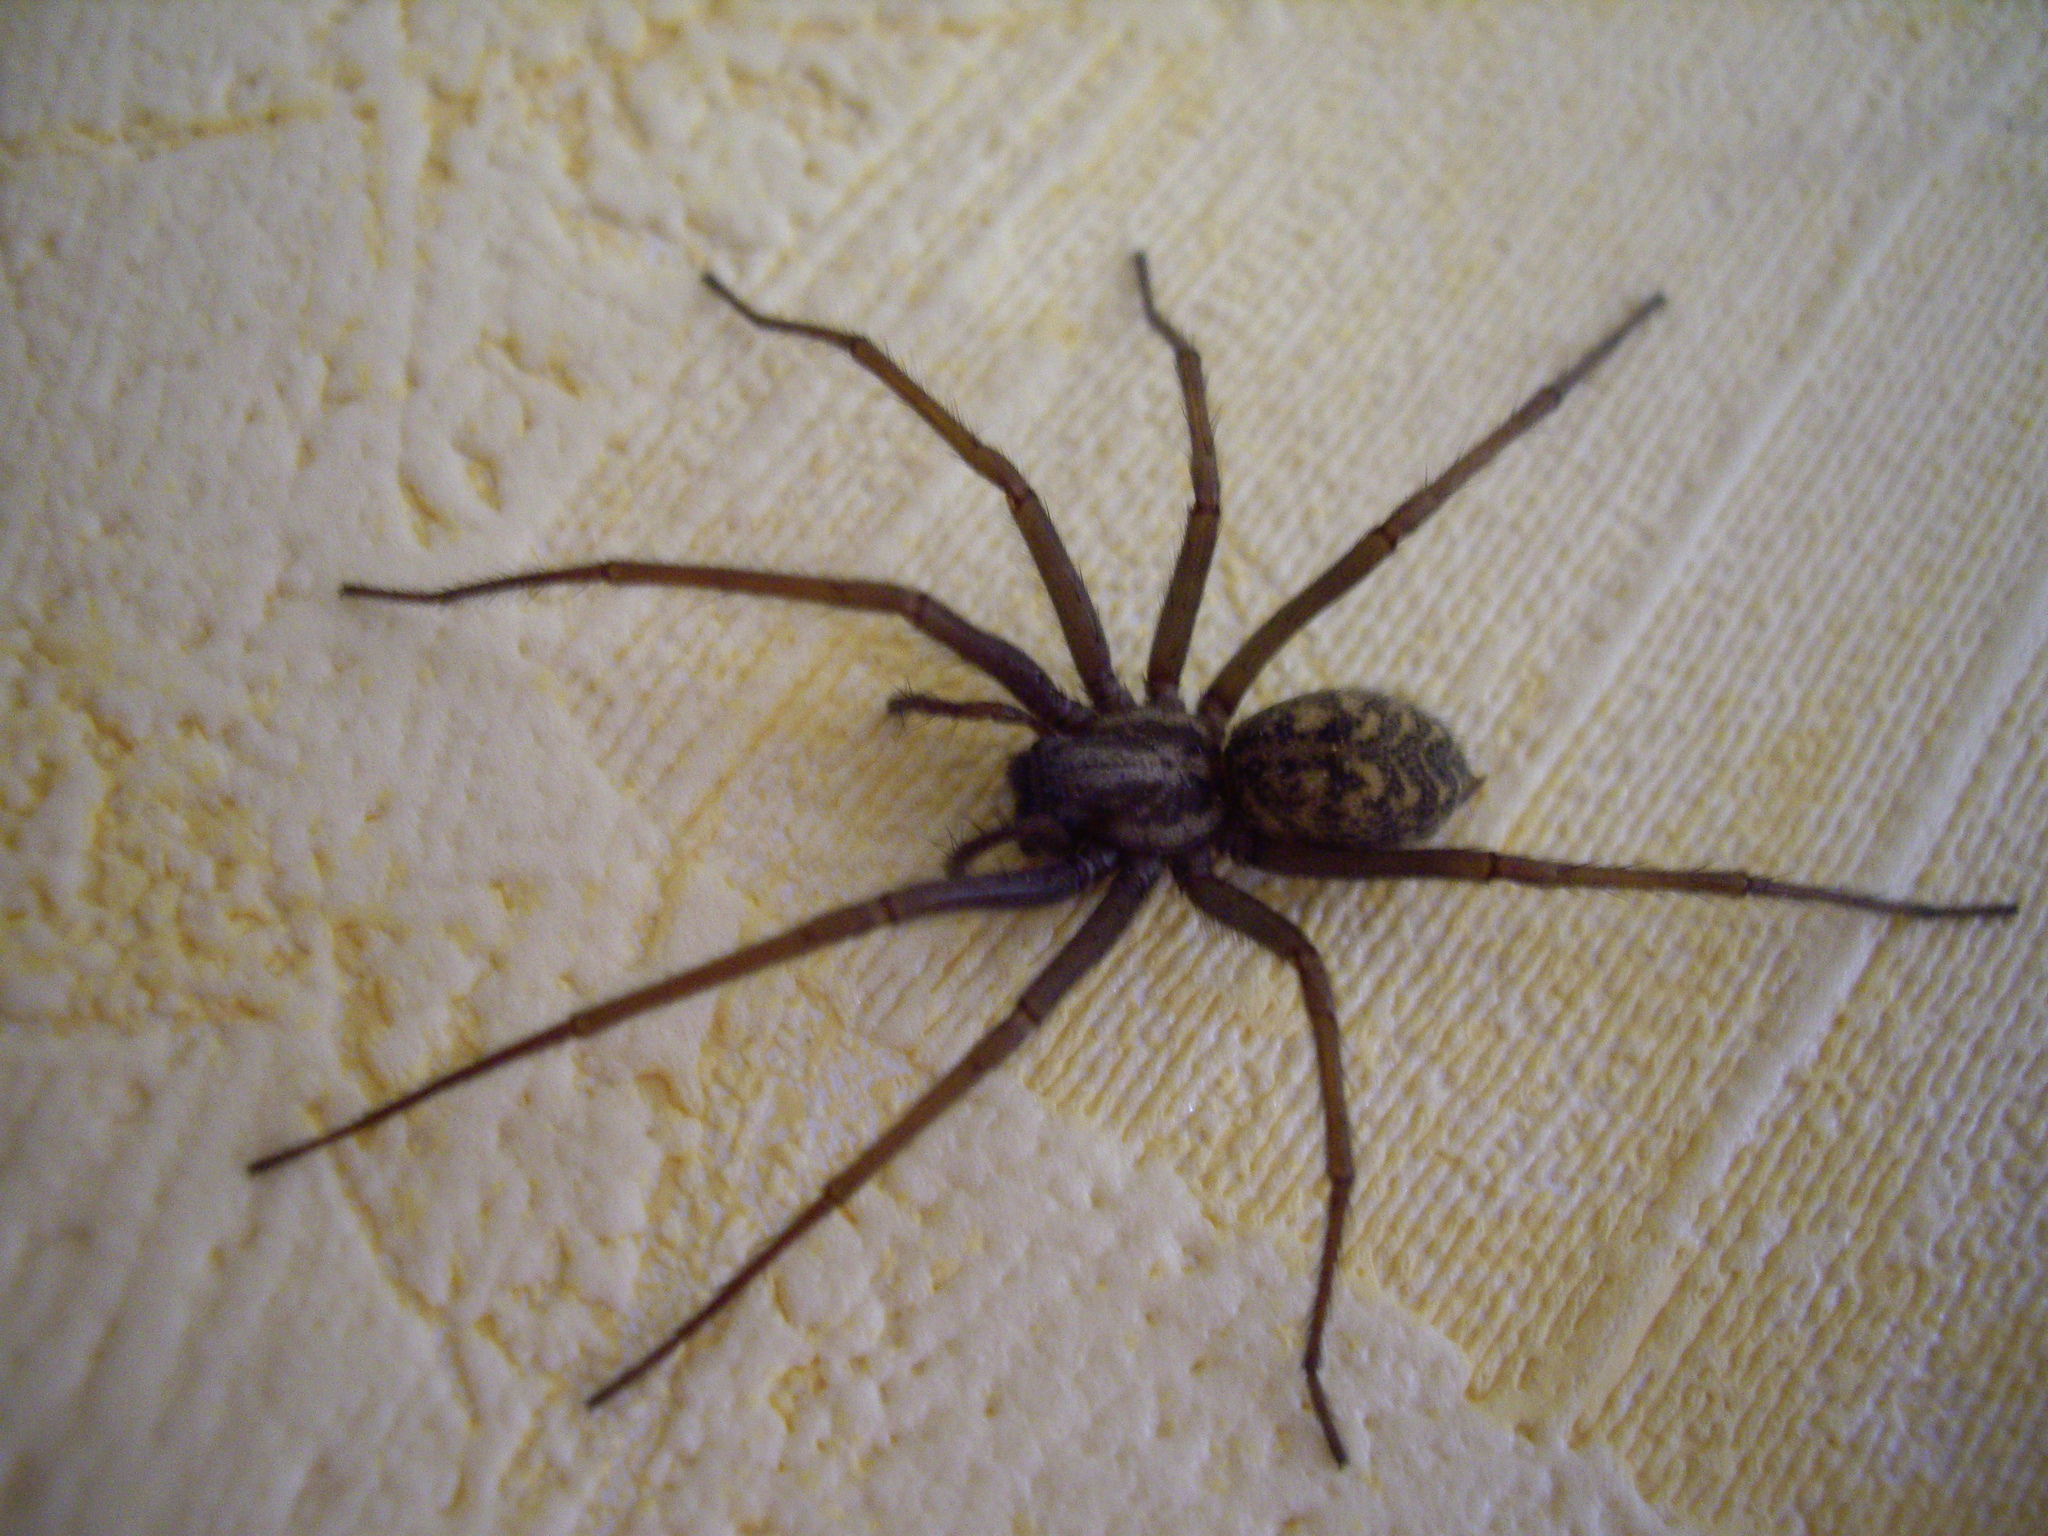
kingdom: Animalia
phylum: Arthropoda
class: Arachnida
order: Araneae
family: Agelenidae
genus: Eratigena
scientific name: Eratigena atrica
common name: Giant house spider
